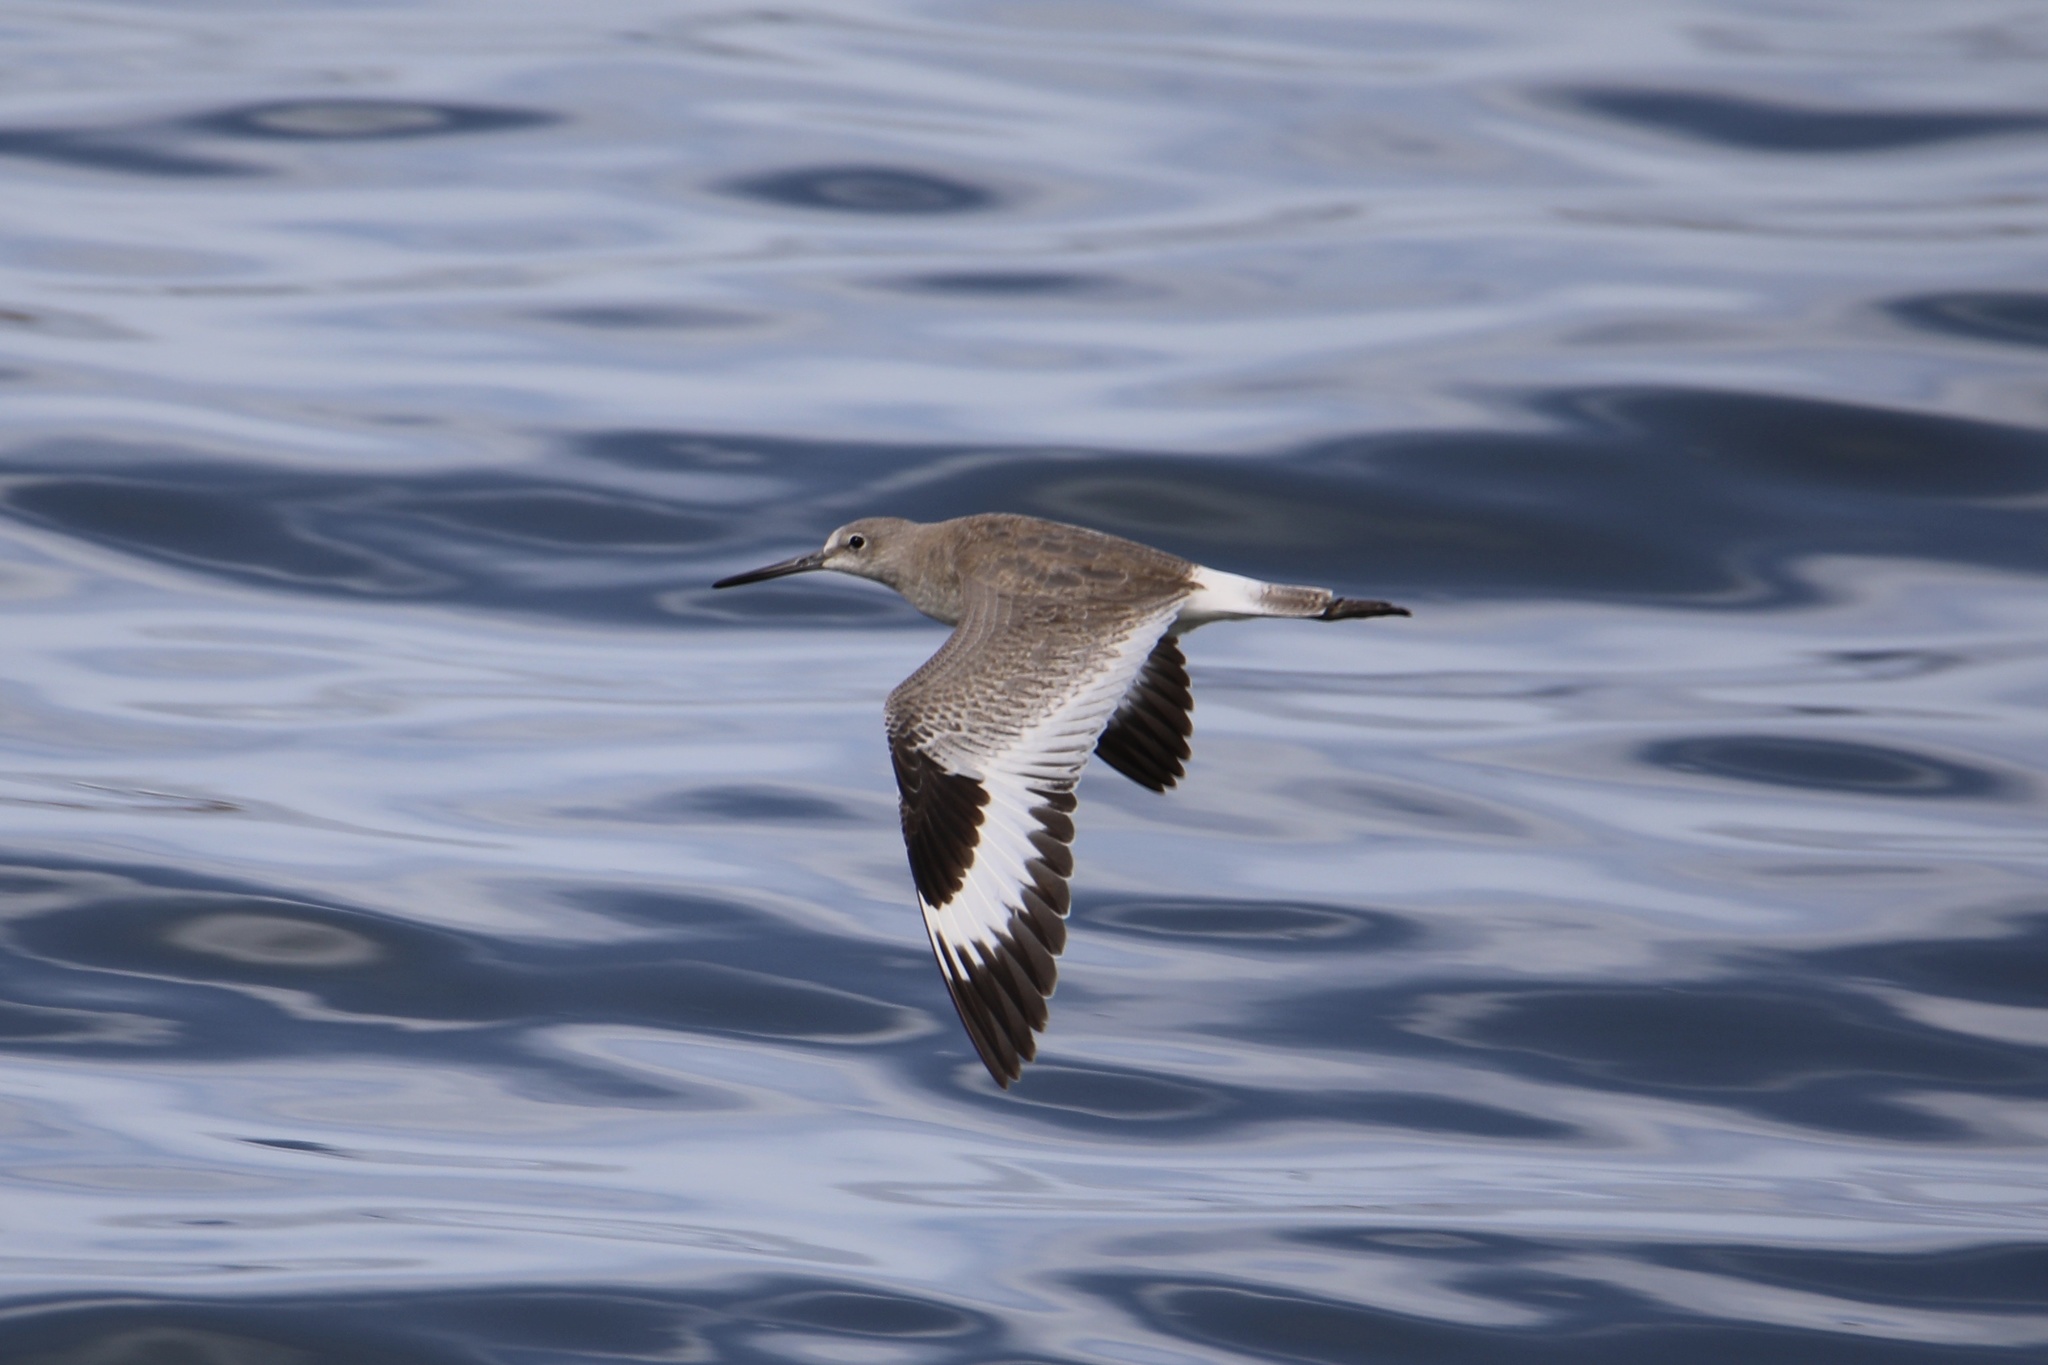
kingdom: Animalia
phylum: Chordata
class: Aves
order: Charadriiformes
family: Scolopacidae
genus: Tringa
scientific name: Tringa semipalmata
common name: Willet
